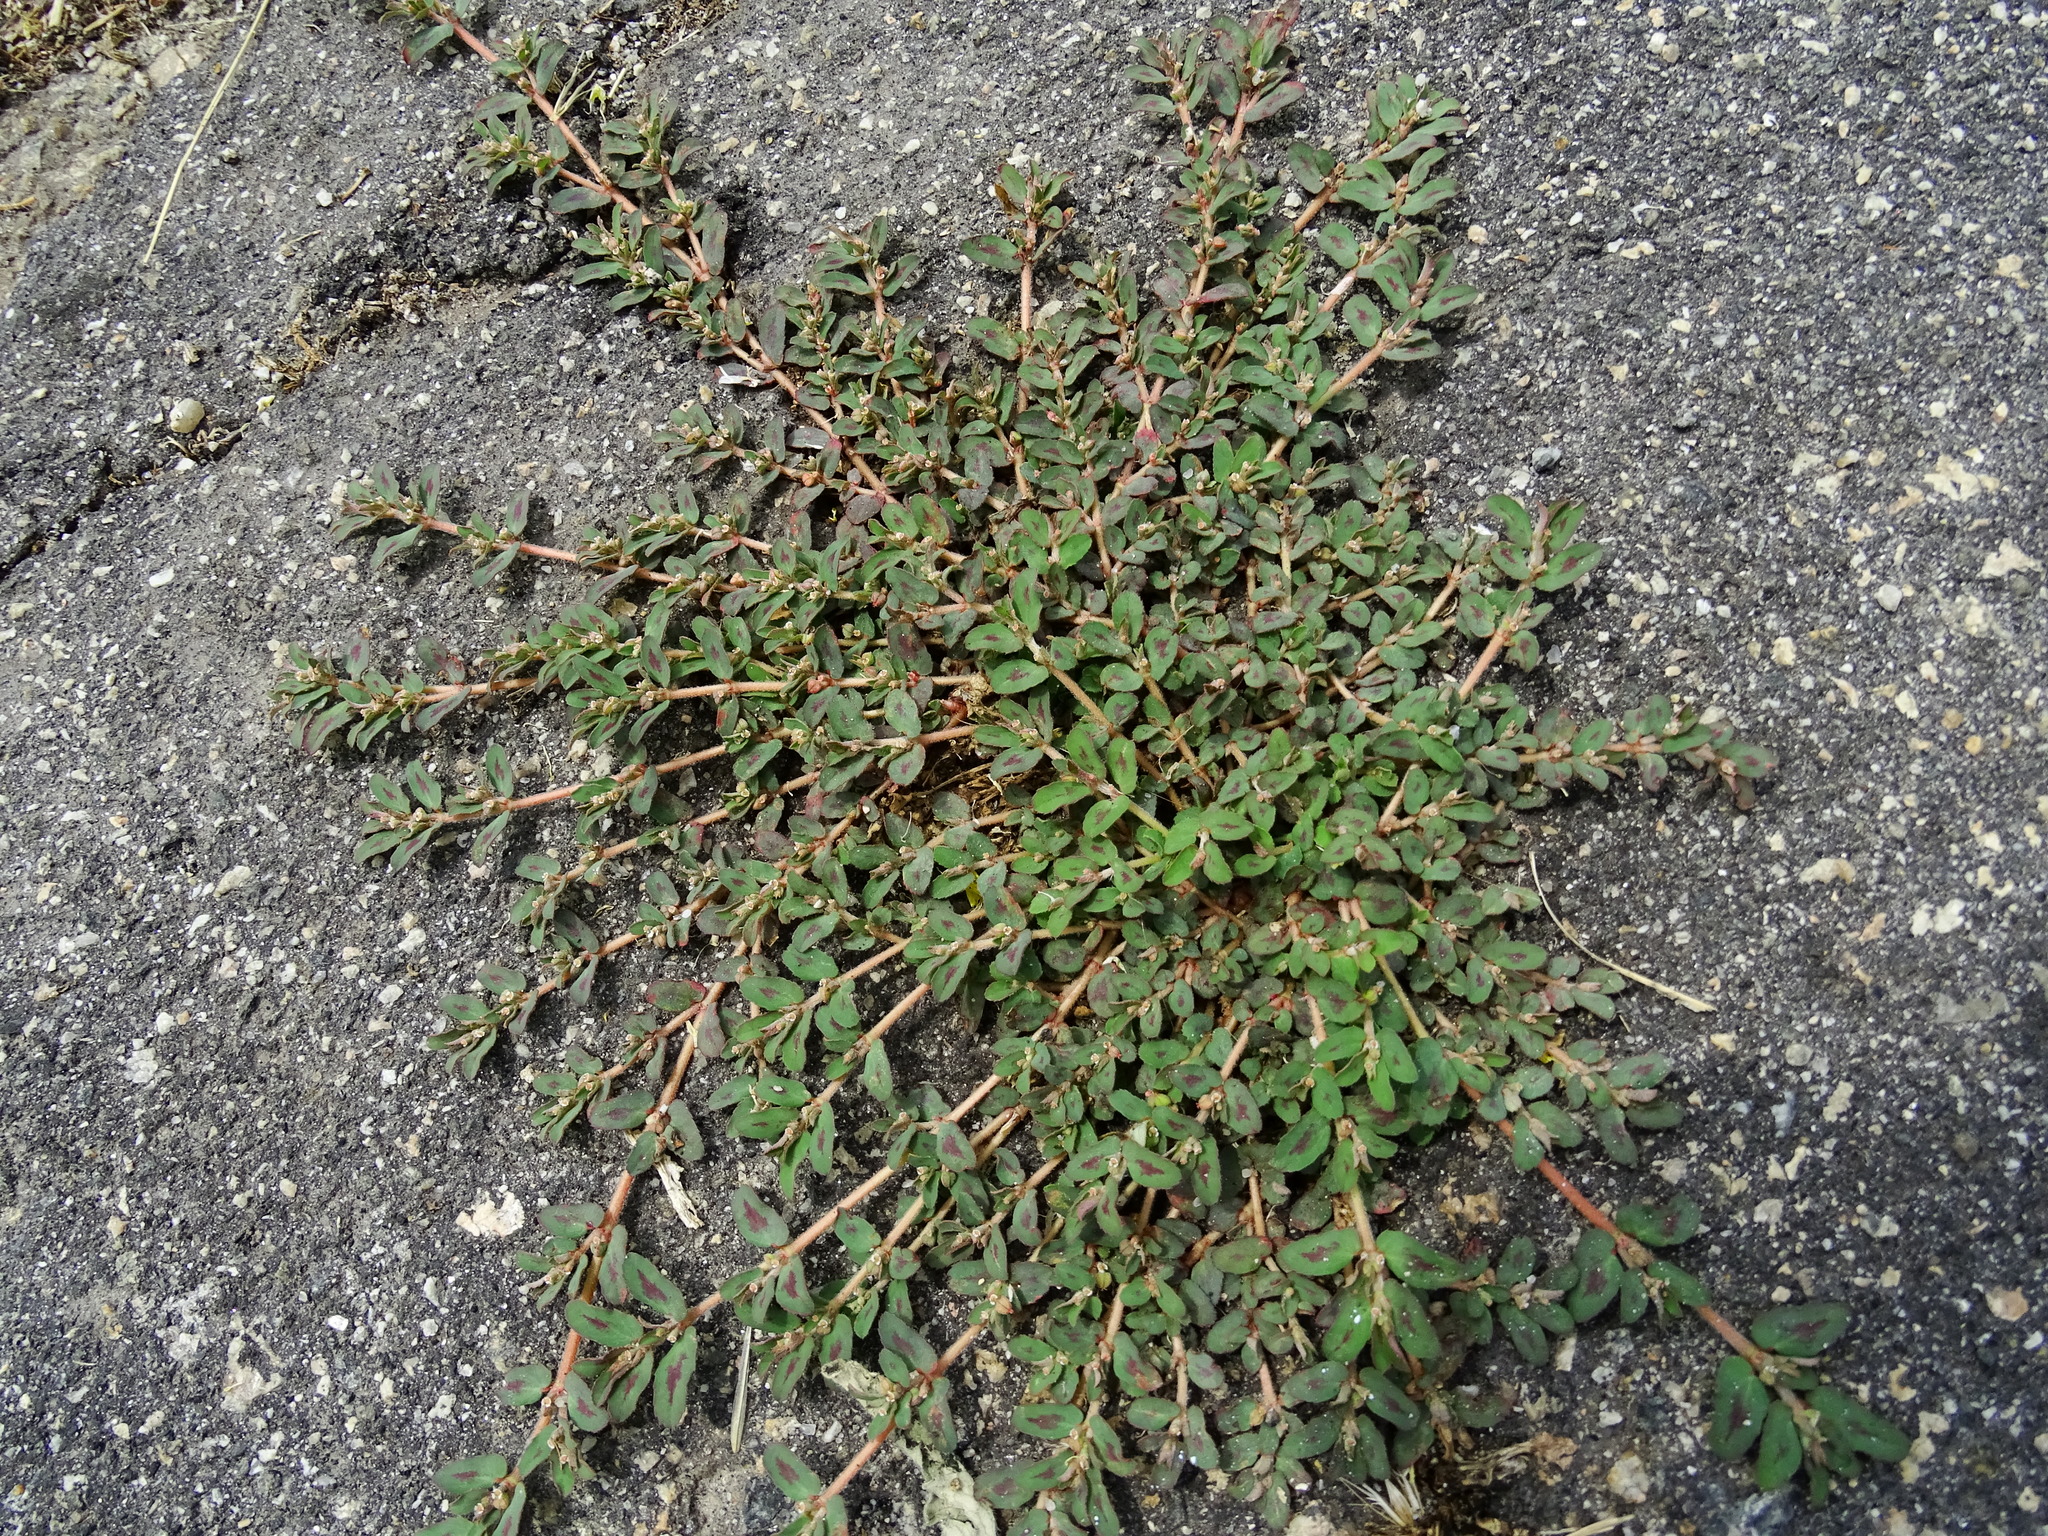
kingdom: Plantae
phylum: Tracheophyta
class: Magnoliopsida
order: Malpighiales
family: Euphorbiaceae
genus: Euphorbia
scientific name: Euphorbia maculata
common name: Spotted spurge
